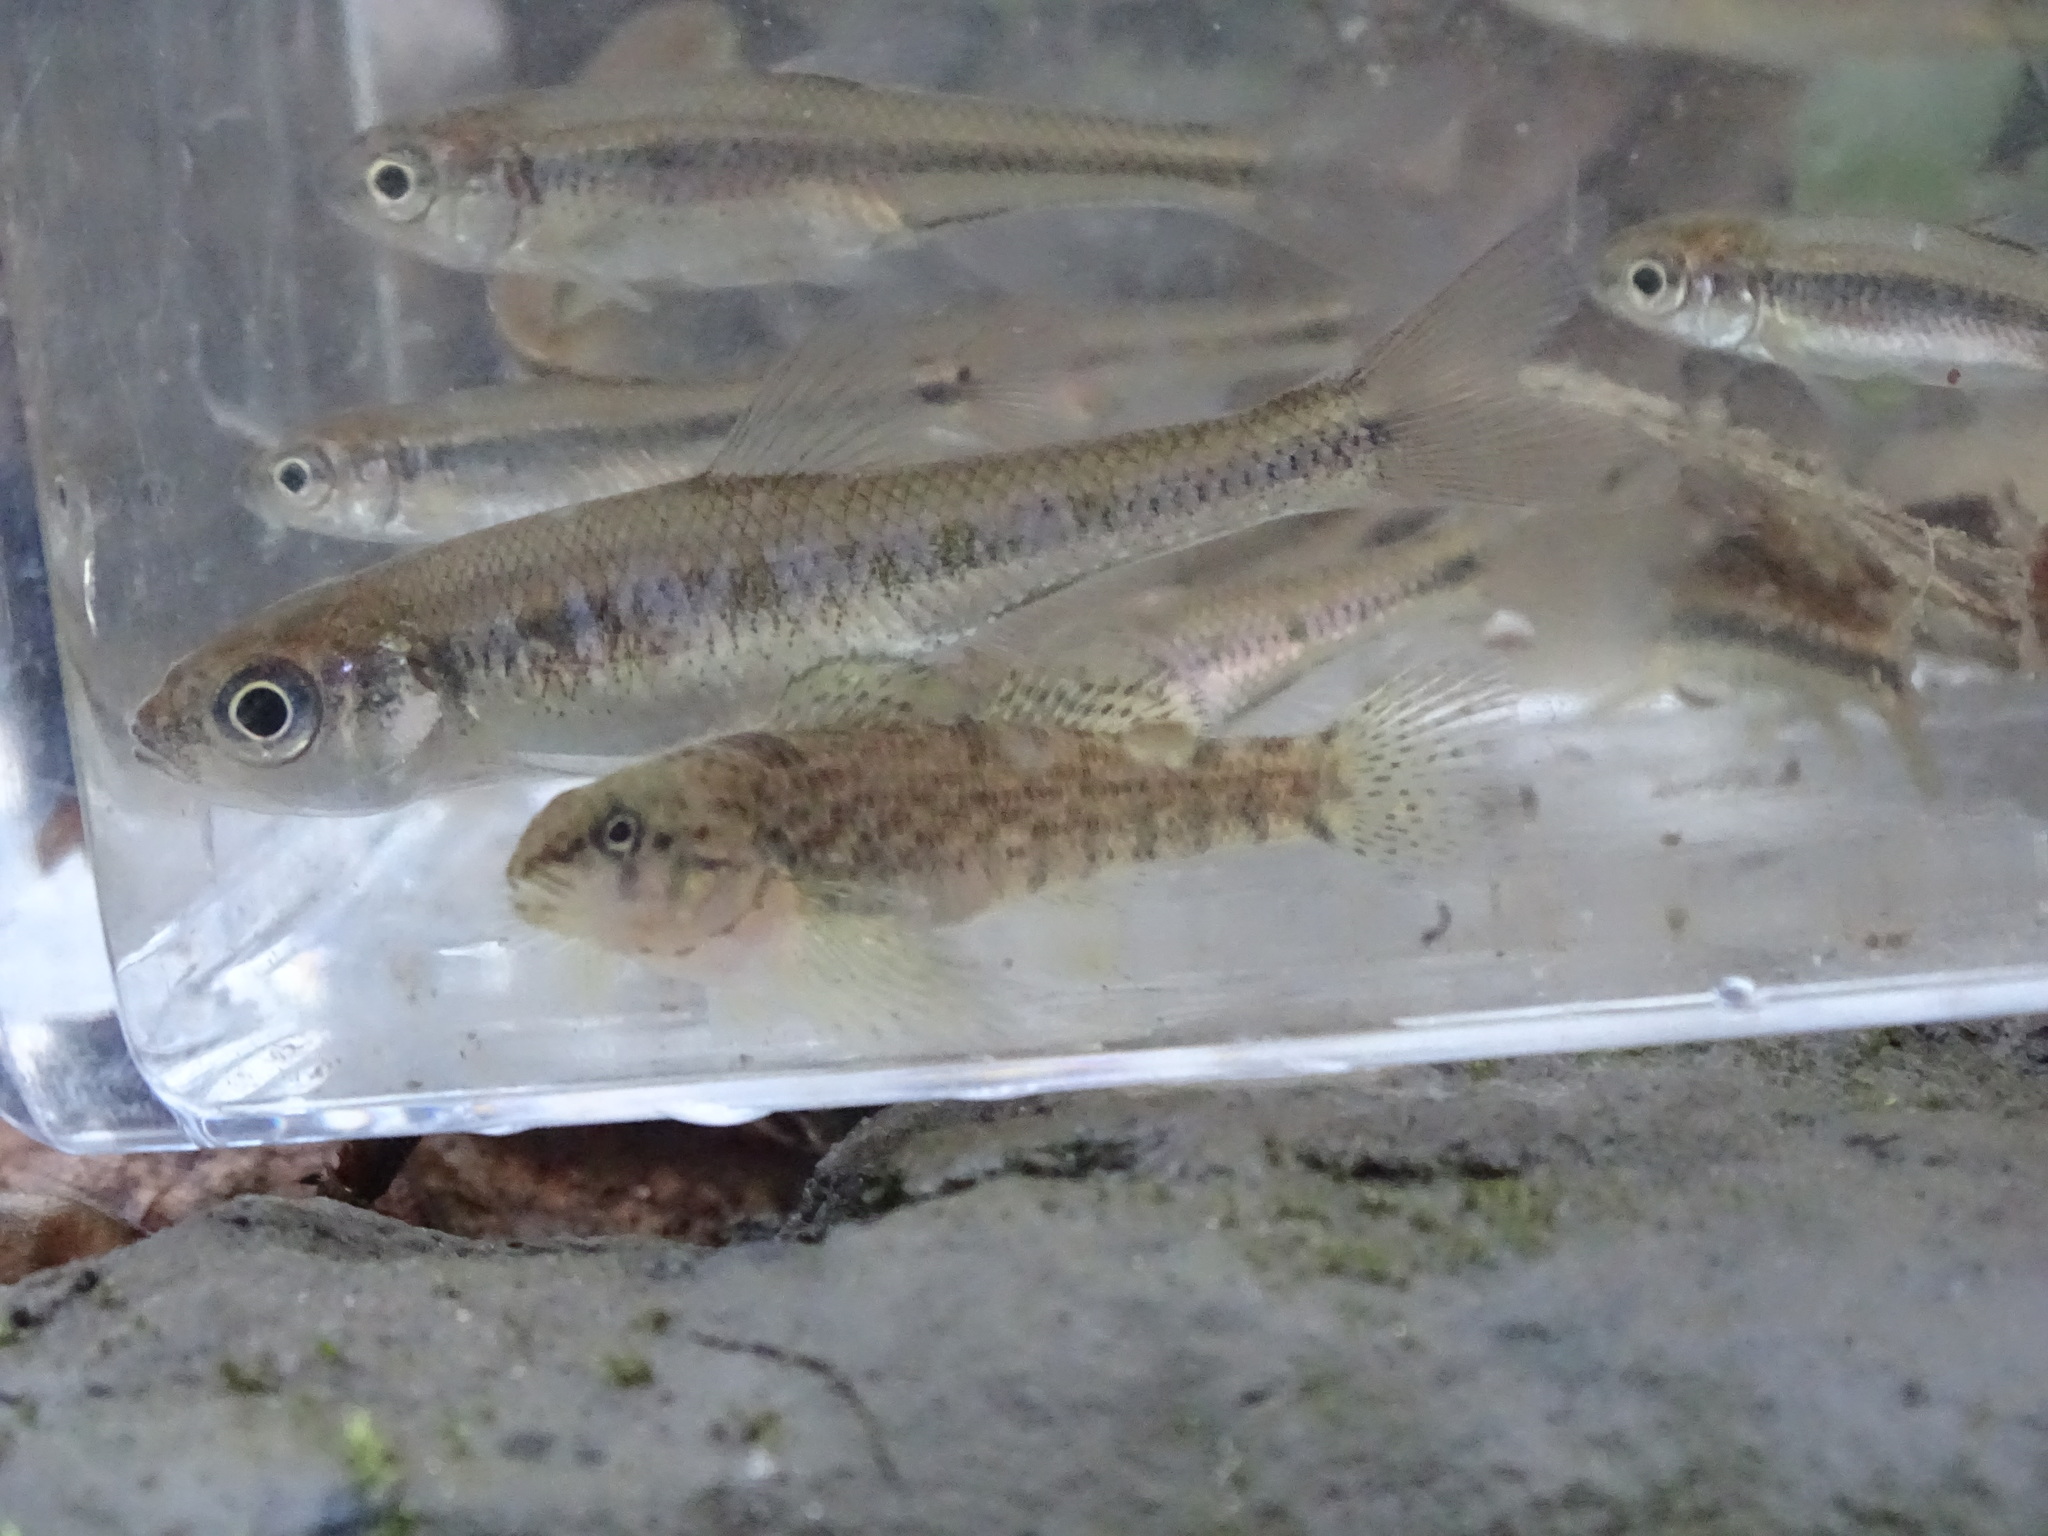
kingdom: Animalia
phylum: Chordata
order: Perciformes
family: Percidae
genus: Etheostoma
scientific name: Etheostoma caeruleum
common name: Rainbow darter
